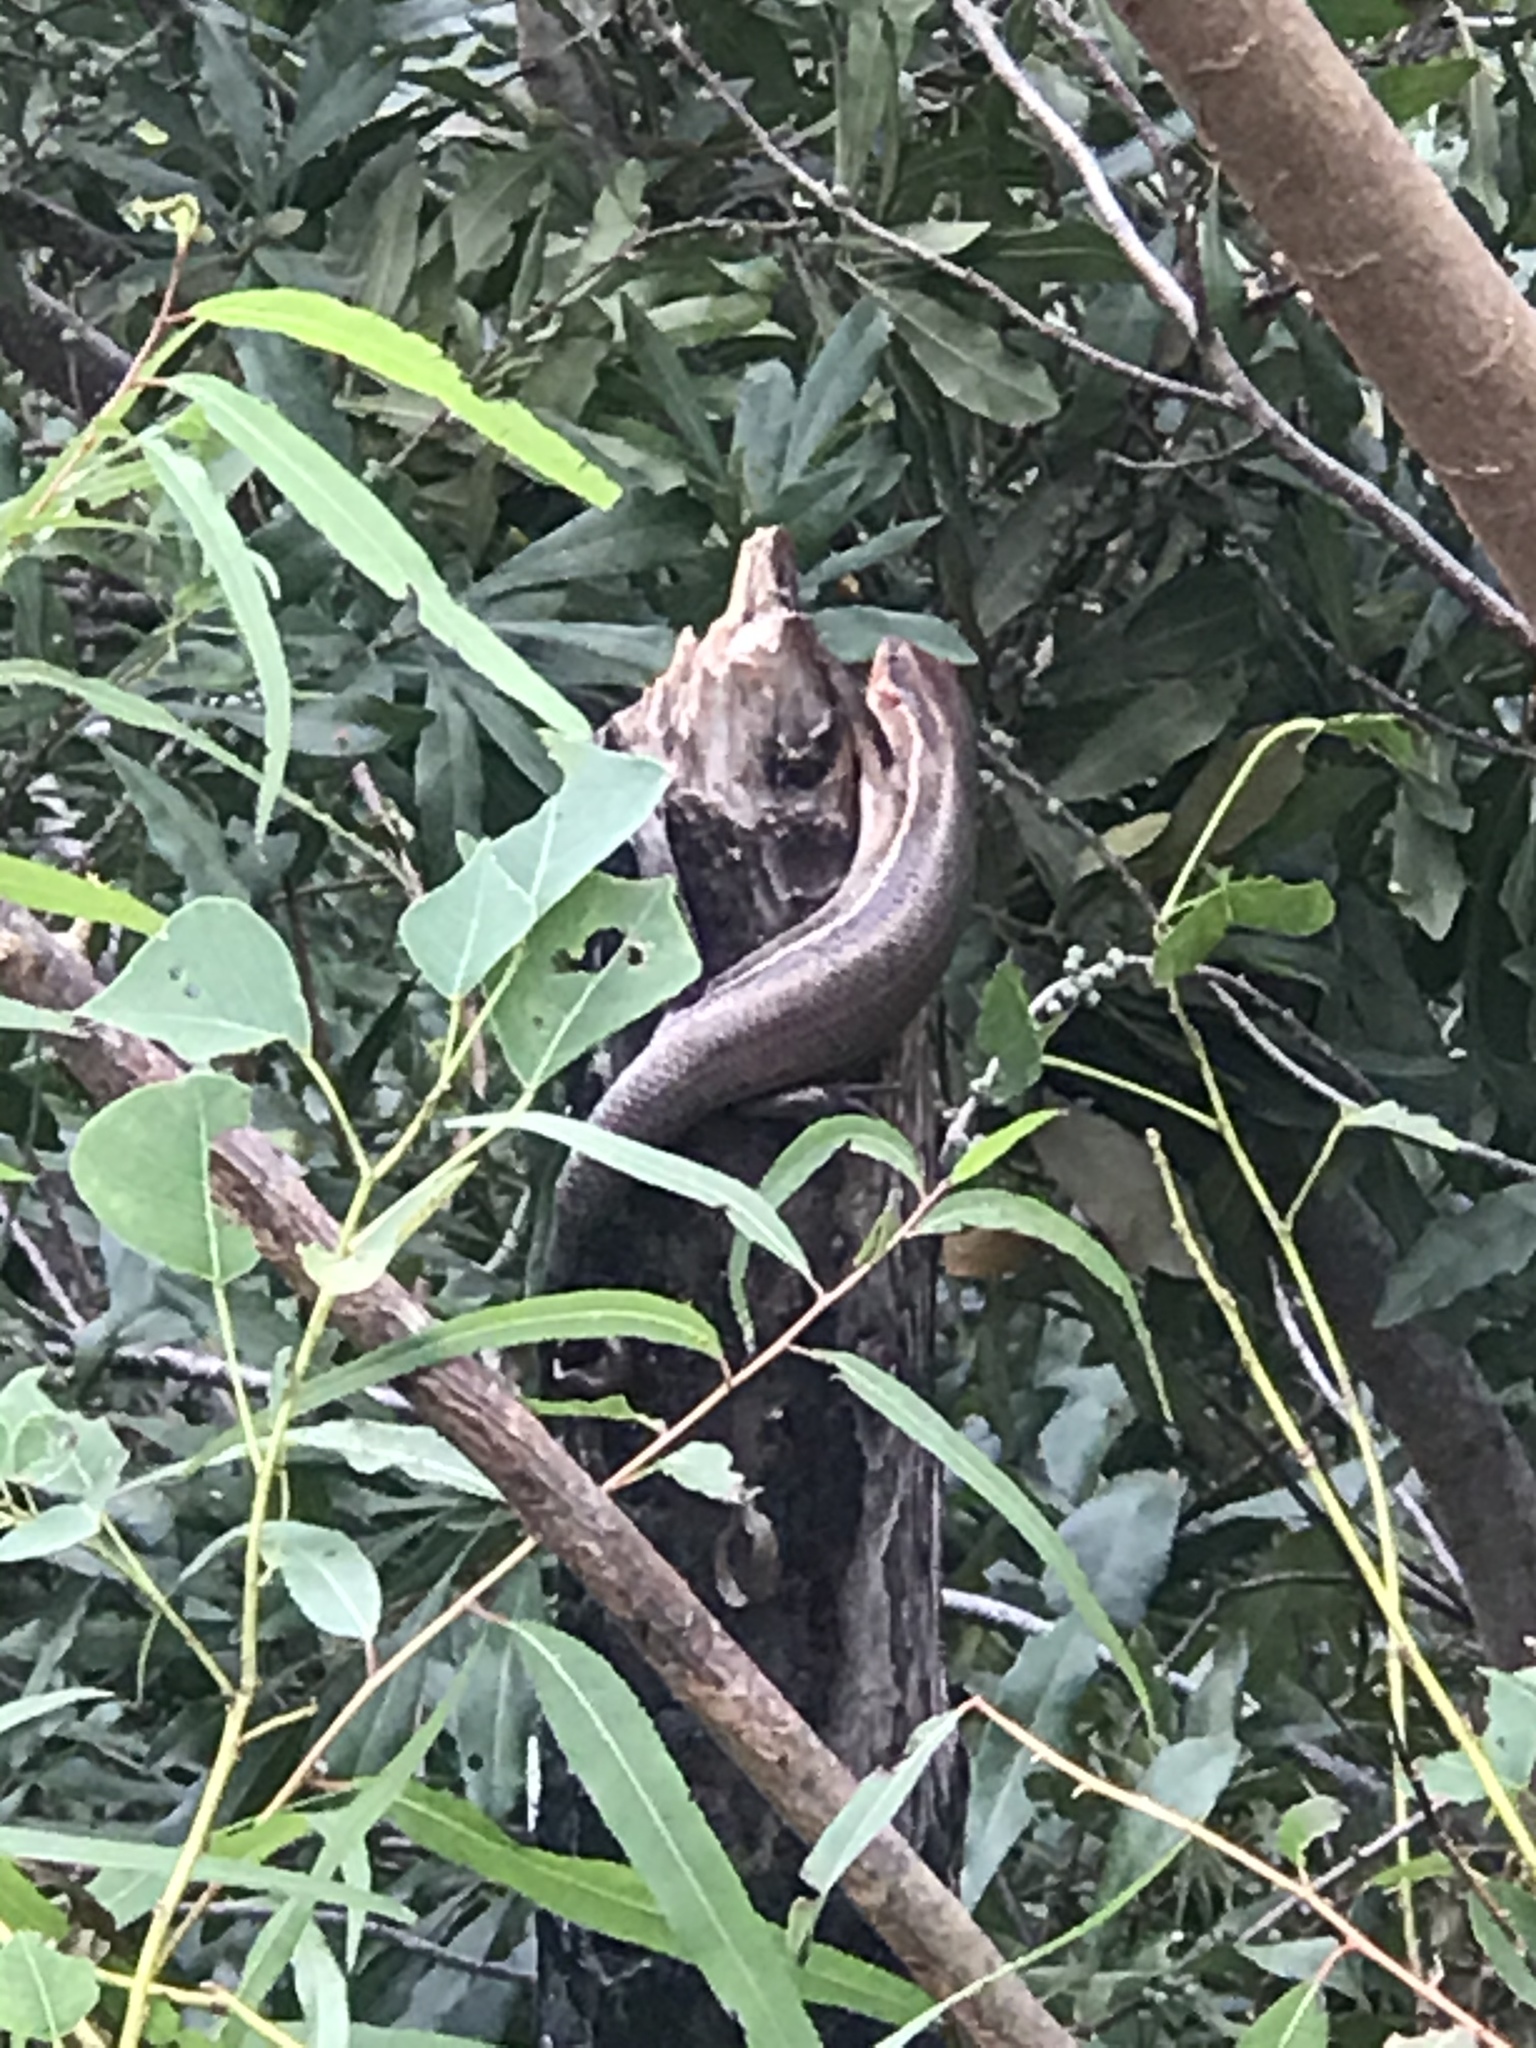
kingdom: Animalia
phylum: Chordata
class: Squamata
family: Scincidae
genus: Plestiodon
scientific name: Plestiodon laticeps
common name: Broadhead skink
